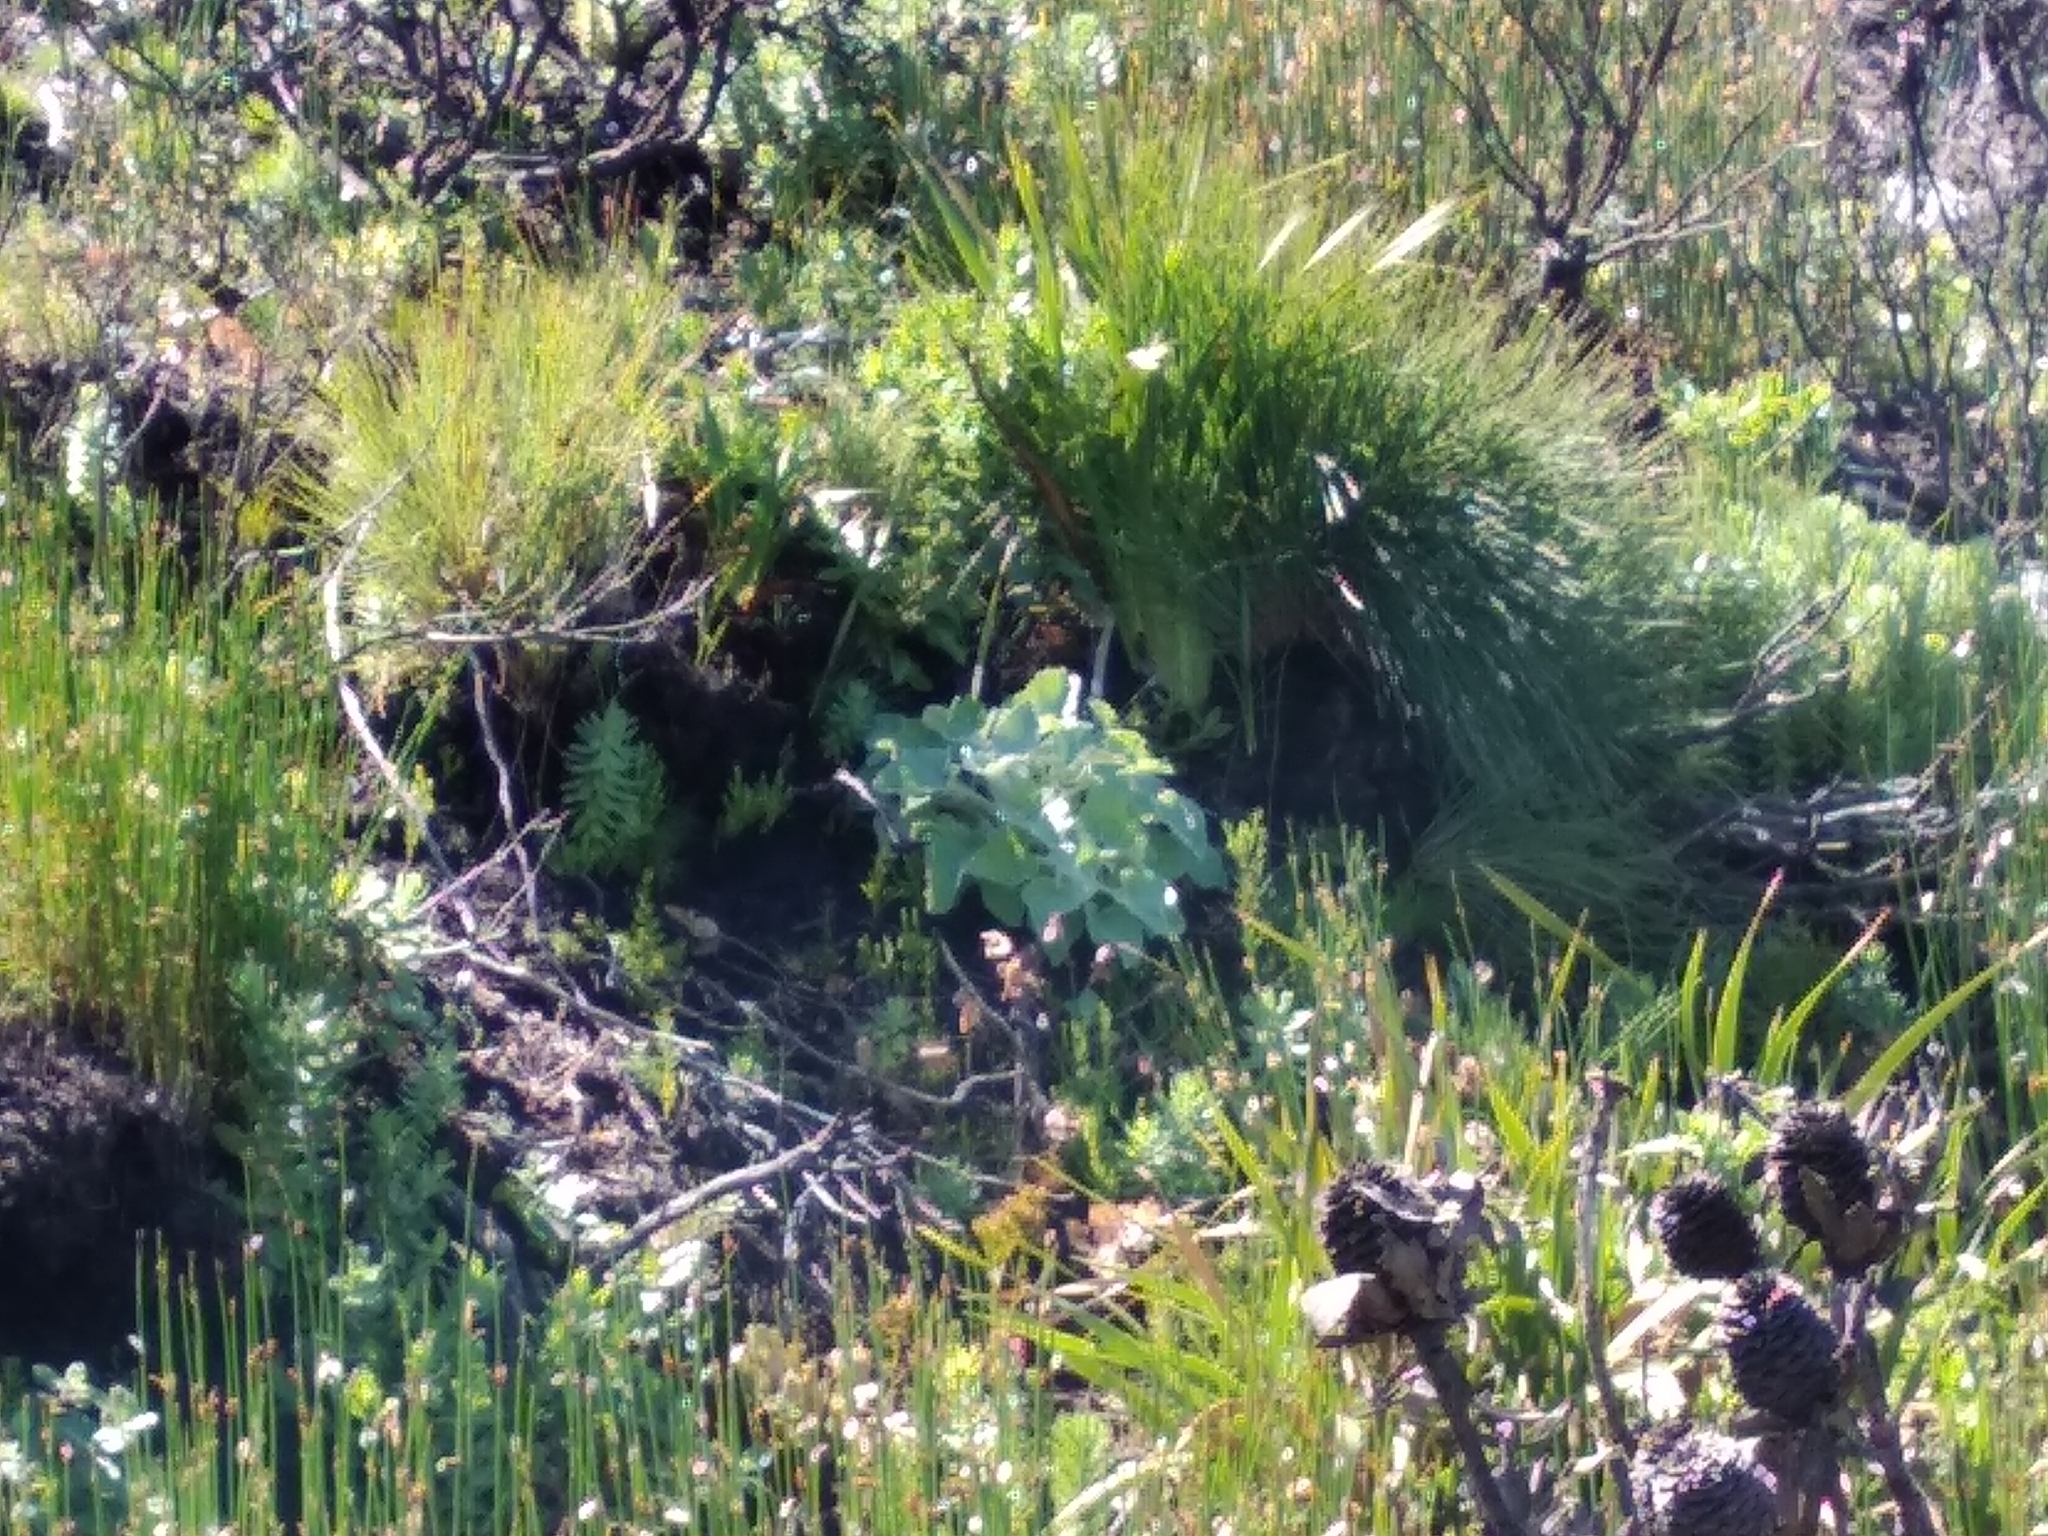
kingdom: Plantae
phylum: Tracheophyta
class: Magnoliopsida
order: Asterales
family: Asteraceae
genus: Senecio
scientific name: Senecio verbascifolius
